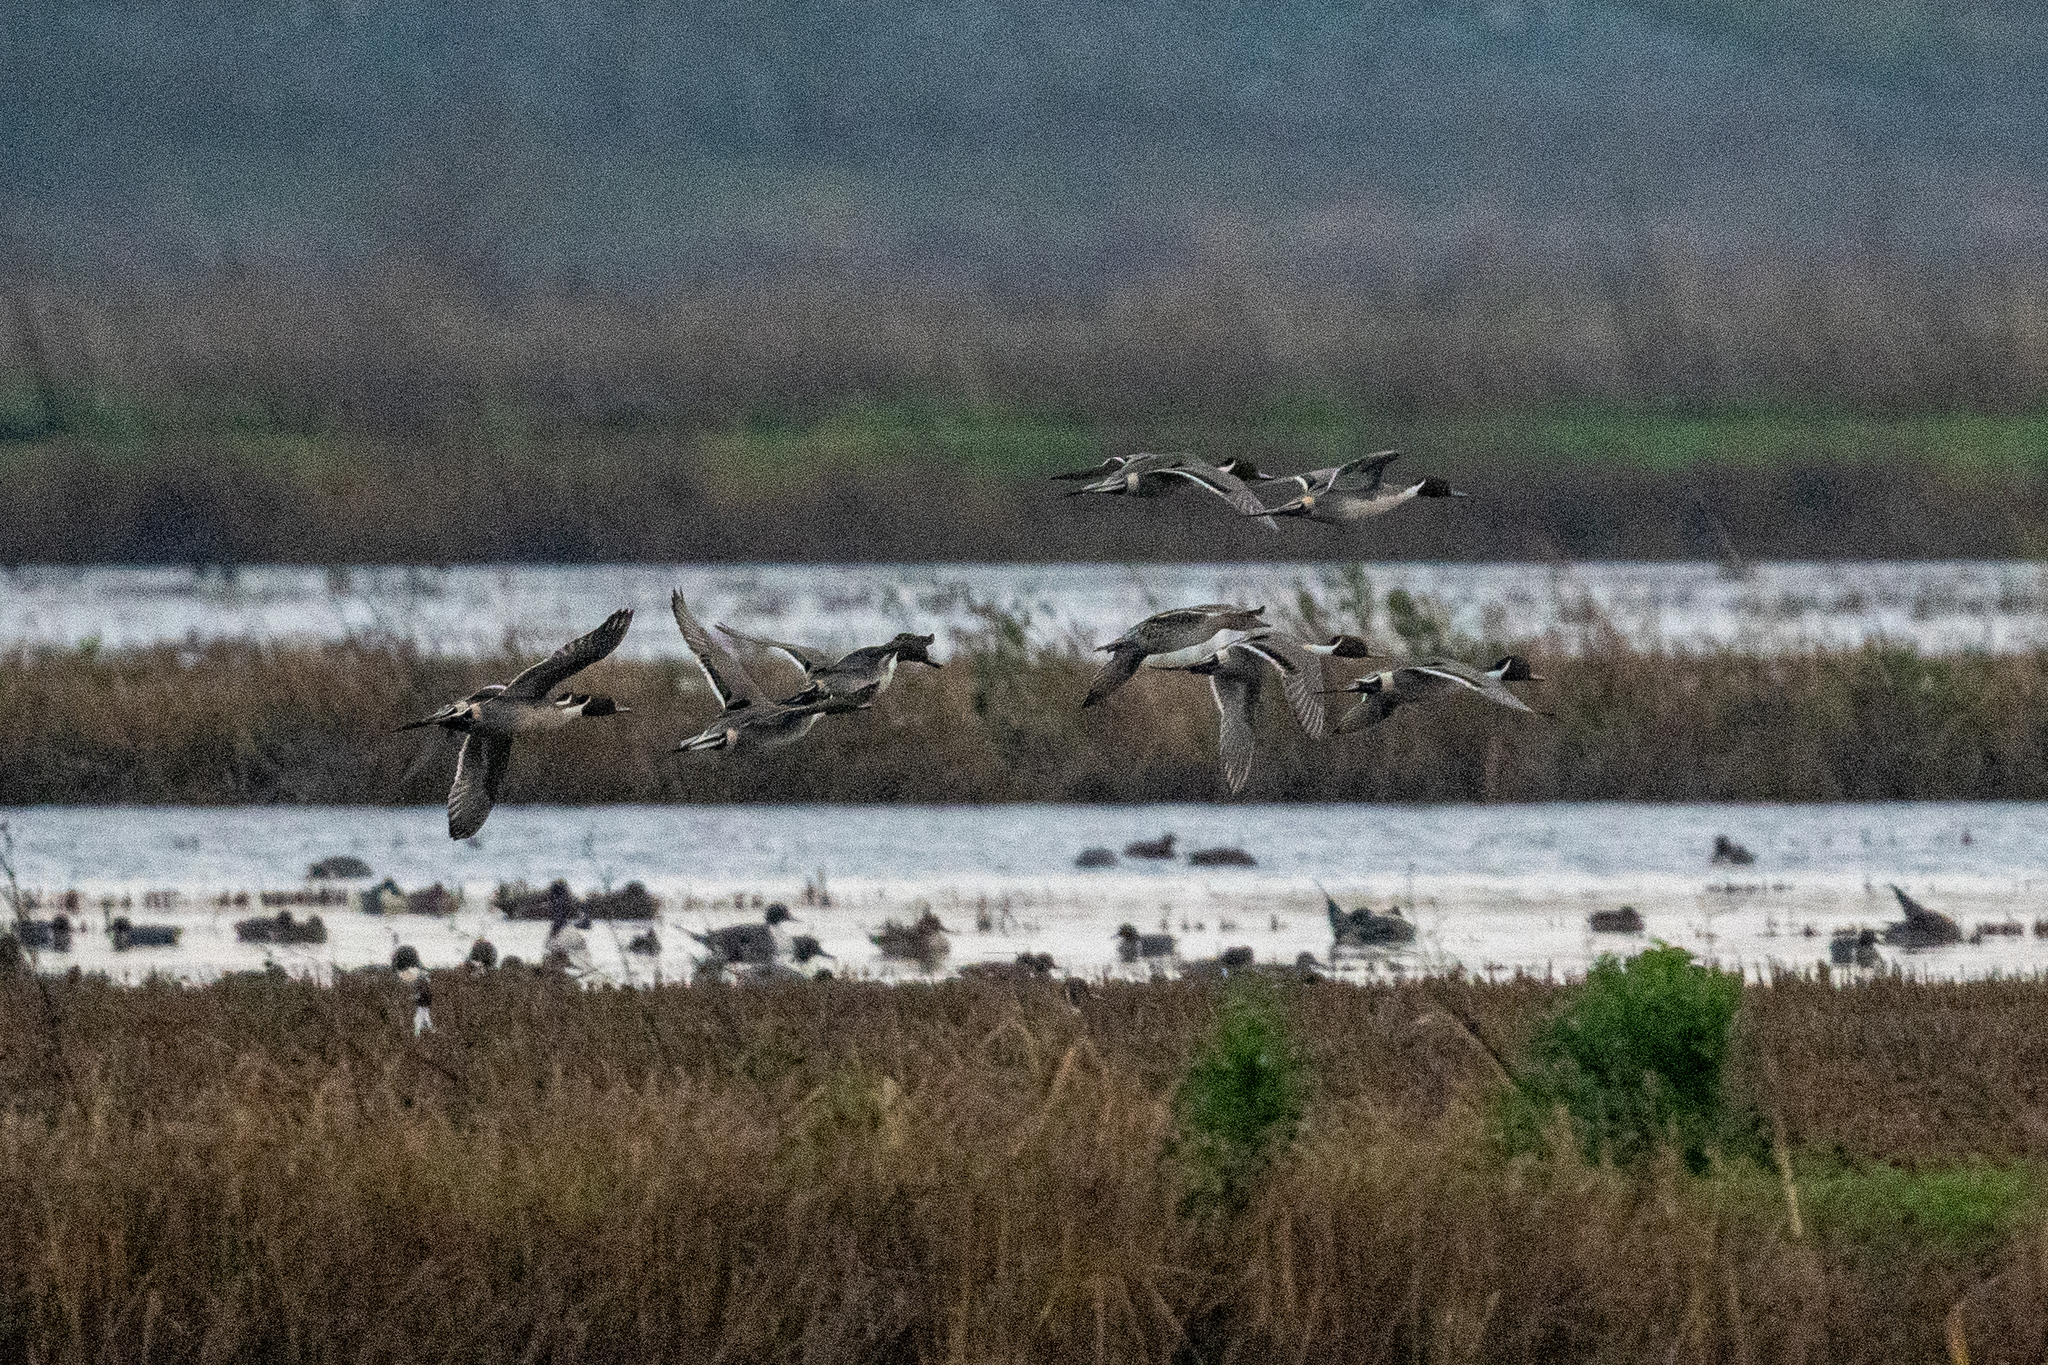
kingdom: Animalia
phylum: Chordata
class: Aves
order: Anseriformes
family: Anatidae
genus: Anas
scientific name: Anas acuta
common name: Northern pintail
